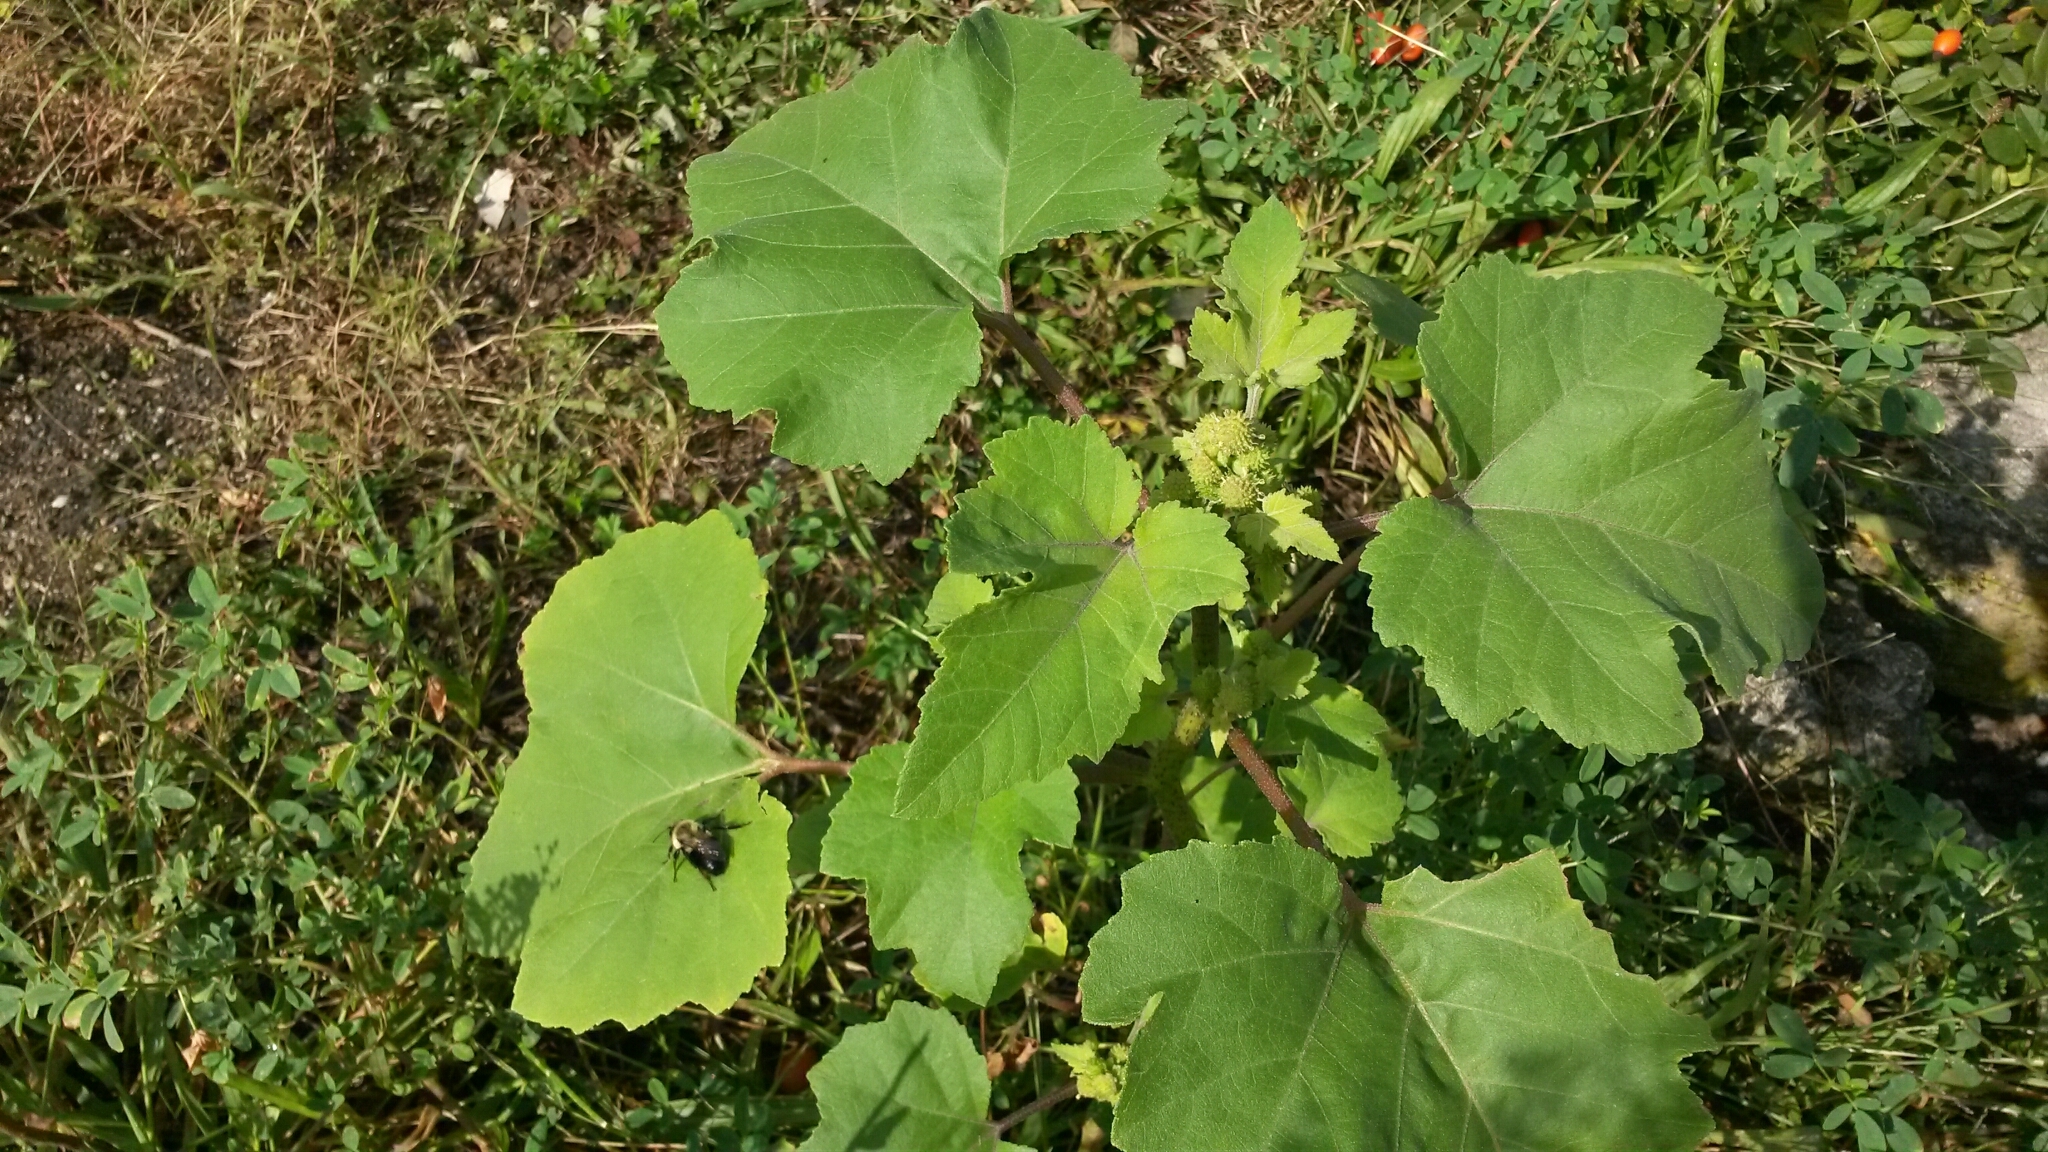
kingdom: Plantae
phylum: Tracheophyta
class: Magnoliopsida
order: Asterales
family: Asteraceae
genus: Xanthium
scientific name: Xanthium strumarium
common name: Rough cocklebur
